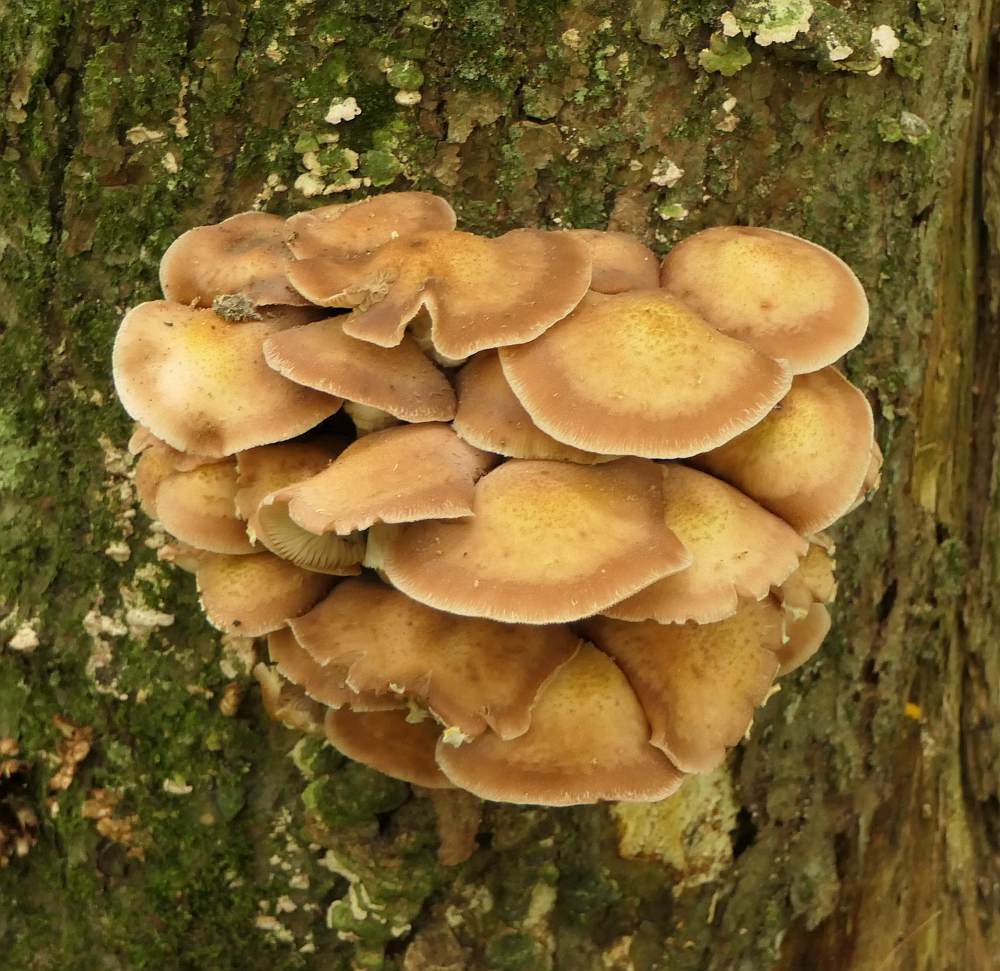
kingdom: Fungi
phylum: Basidiomycota
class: Agaricomycetes
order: Agaricales
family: Physalacriaceae
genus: Armillaria
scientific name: Armillaria mellea
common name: Honey fungus
